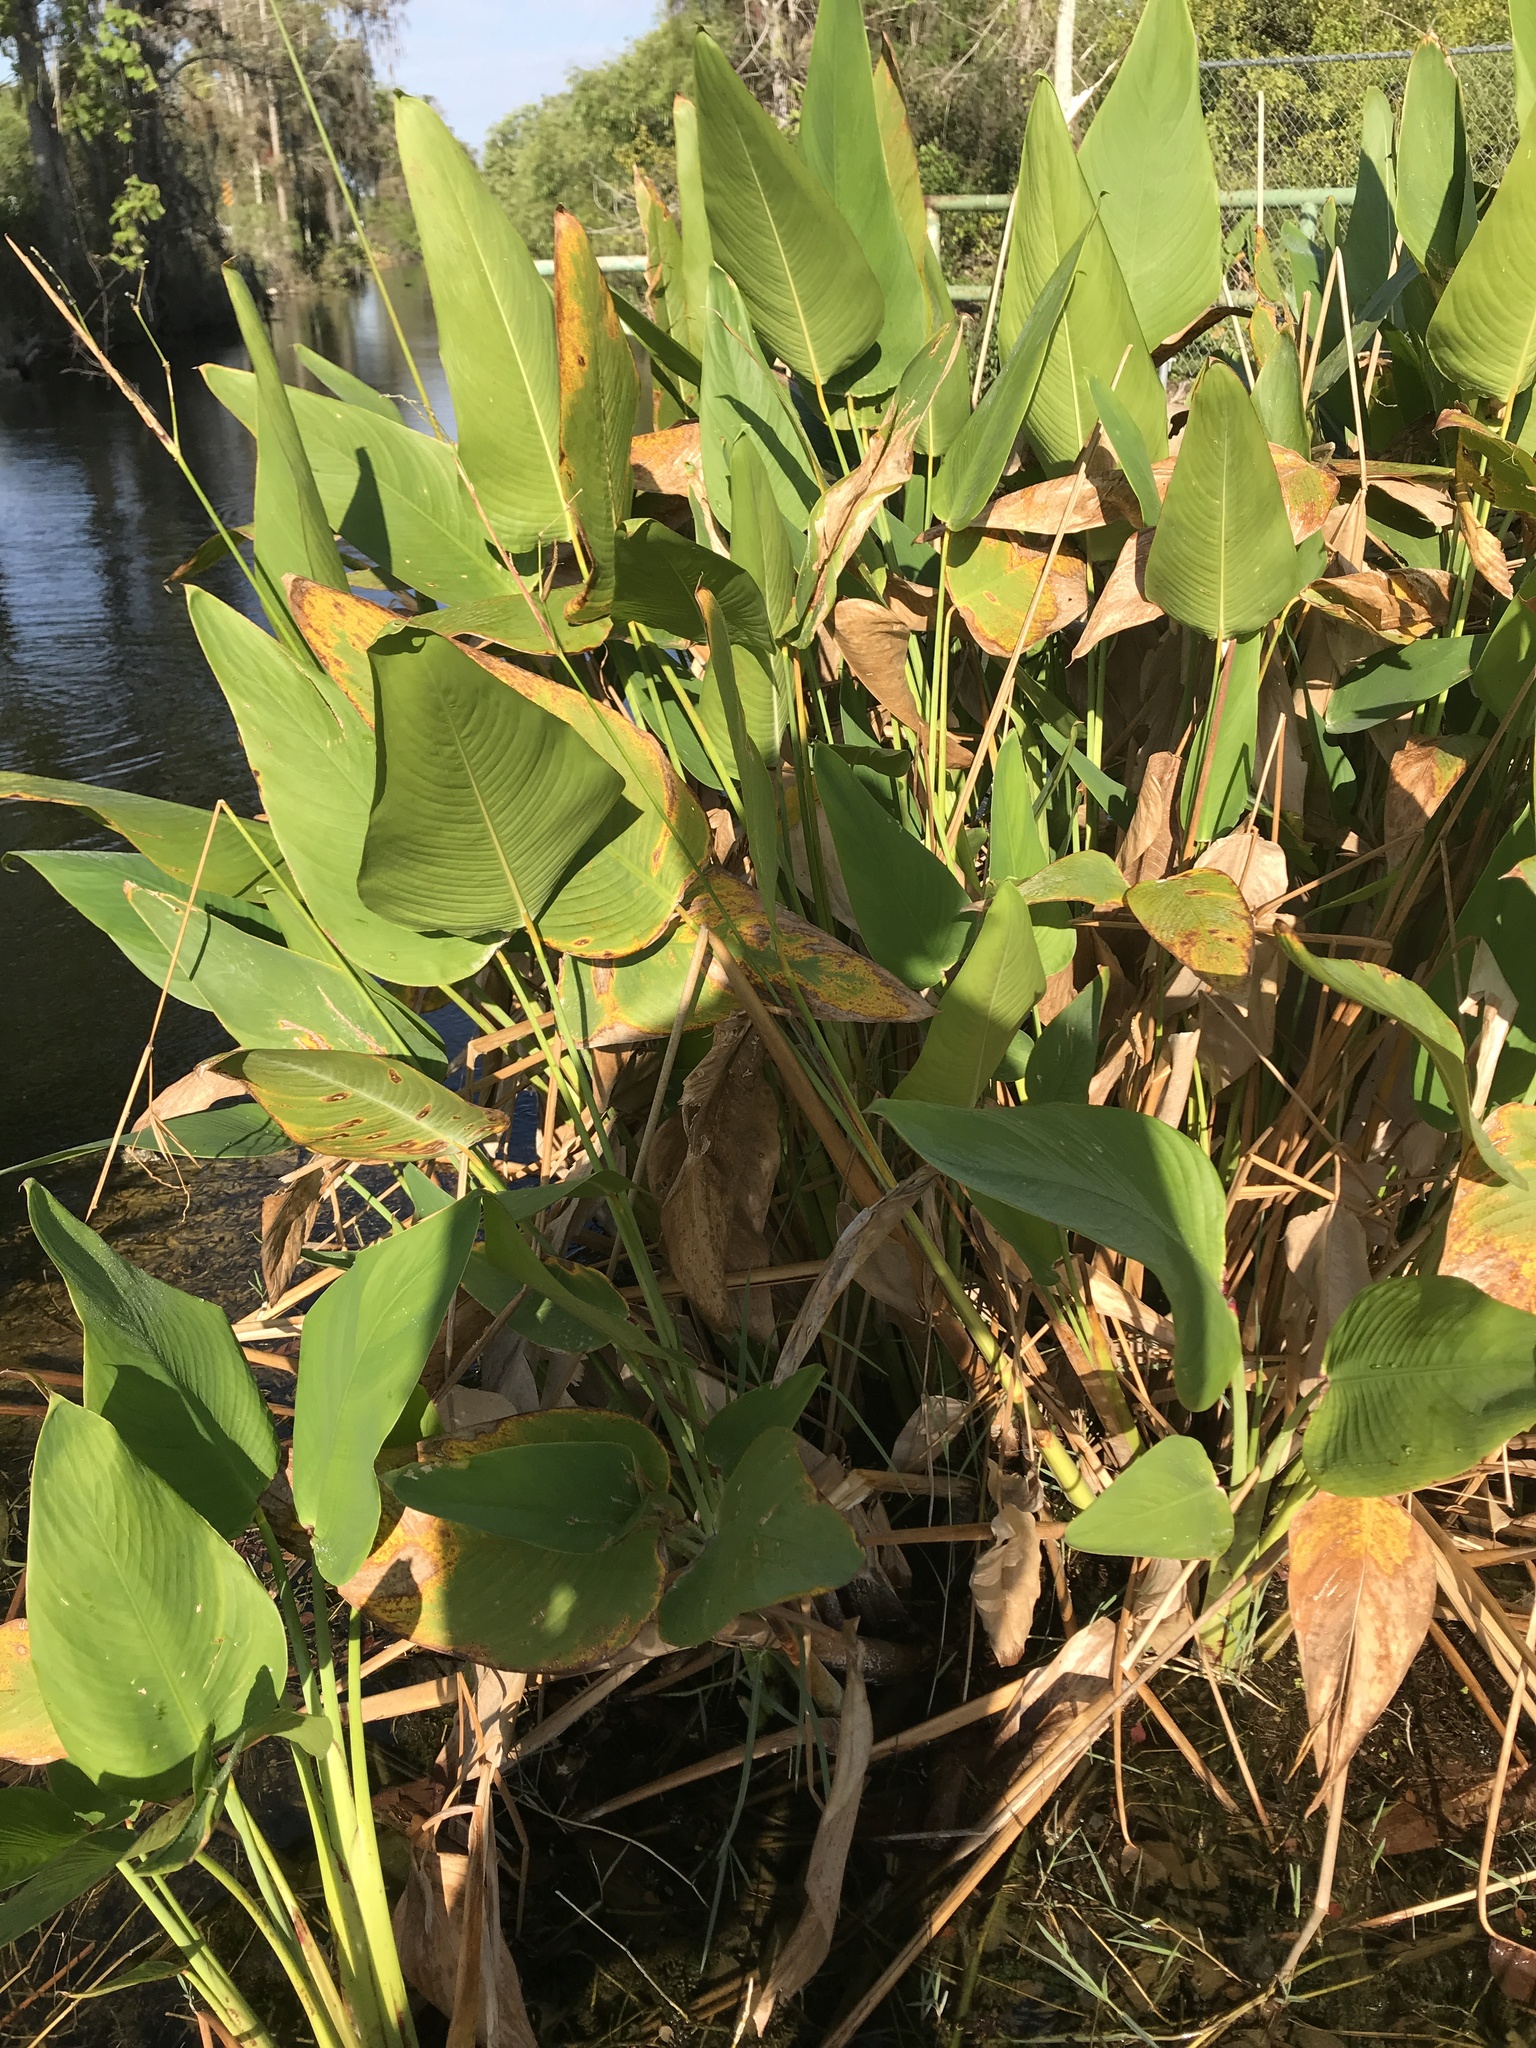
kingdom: Plantae
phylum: Tracheophyta
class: Liliopsida
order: Zingiberales
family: Marantaceae
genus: Thalia
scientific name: Thalia geniculata
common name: Arrowroot
